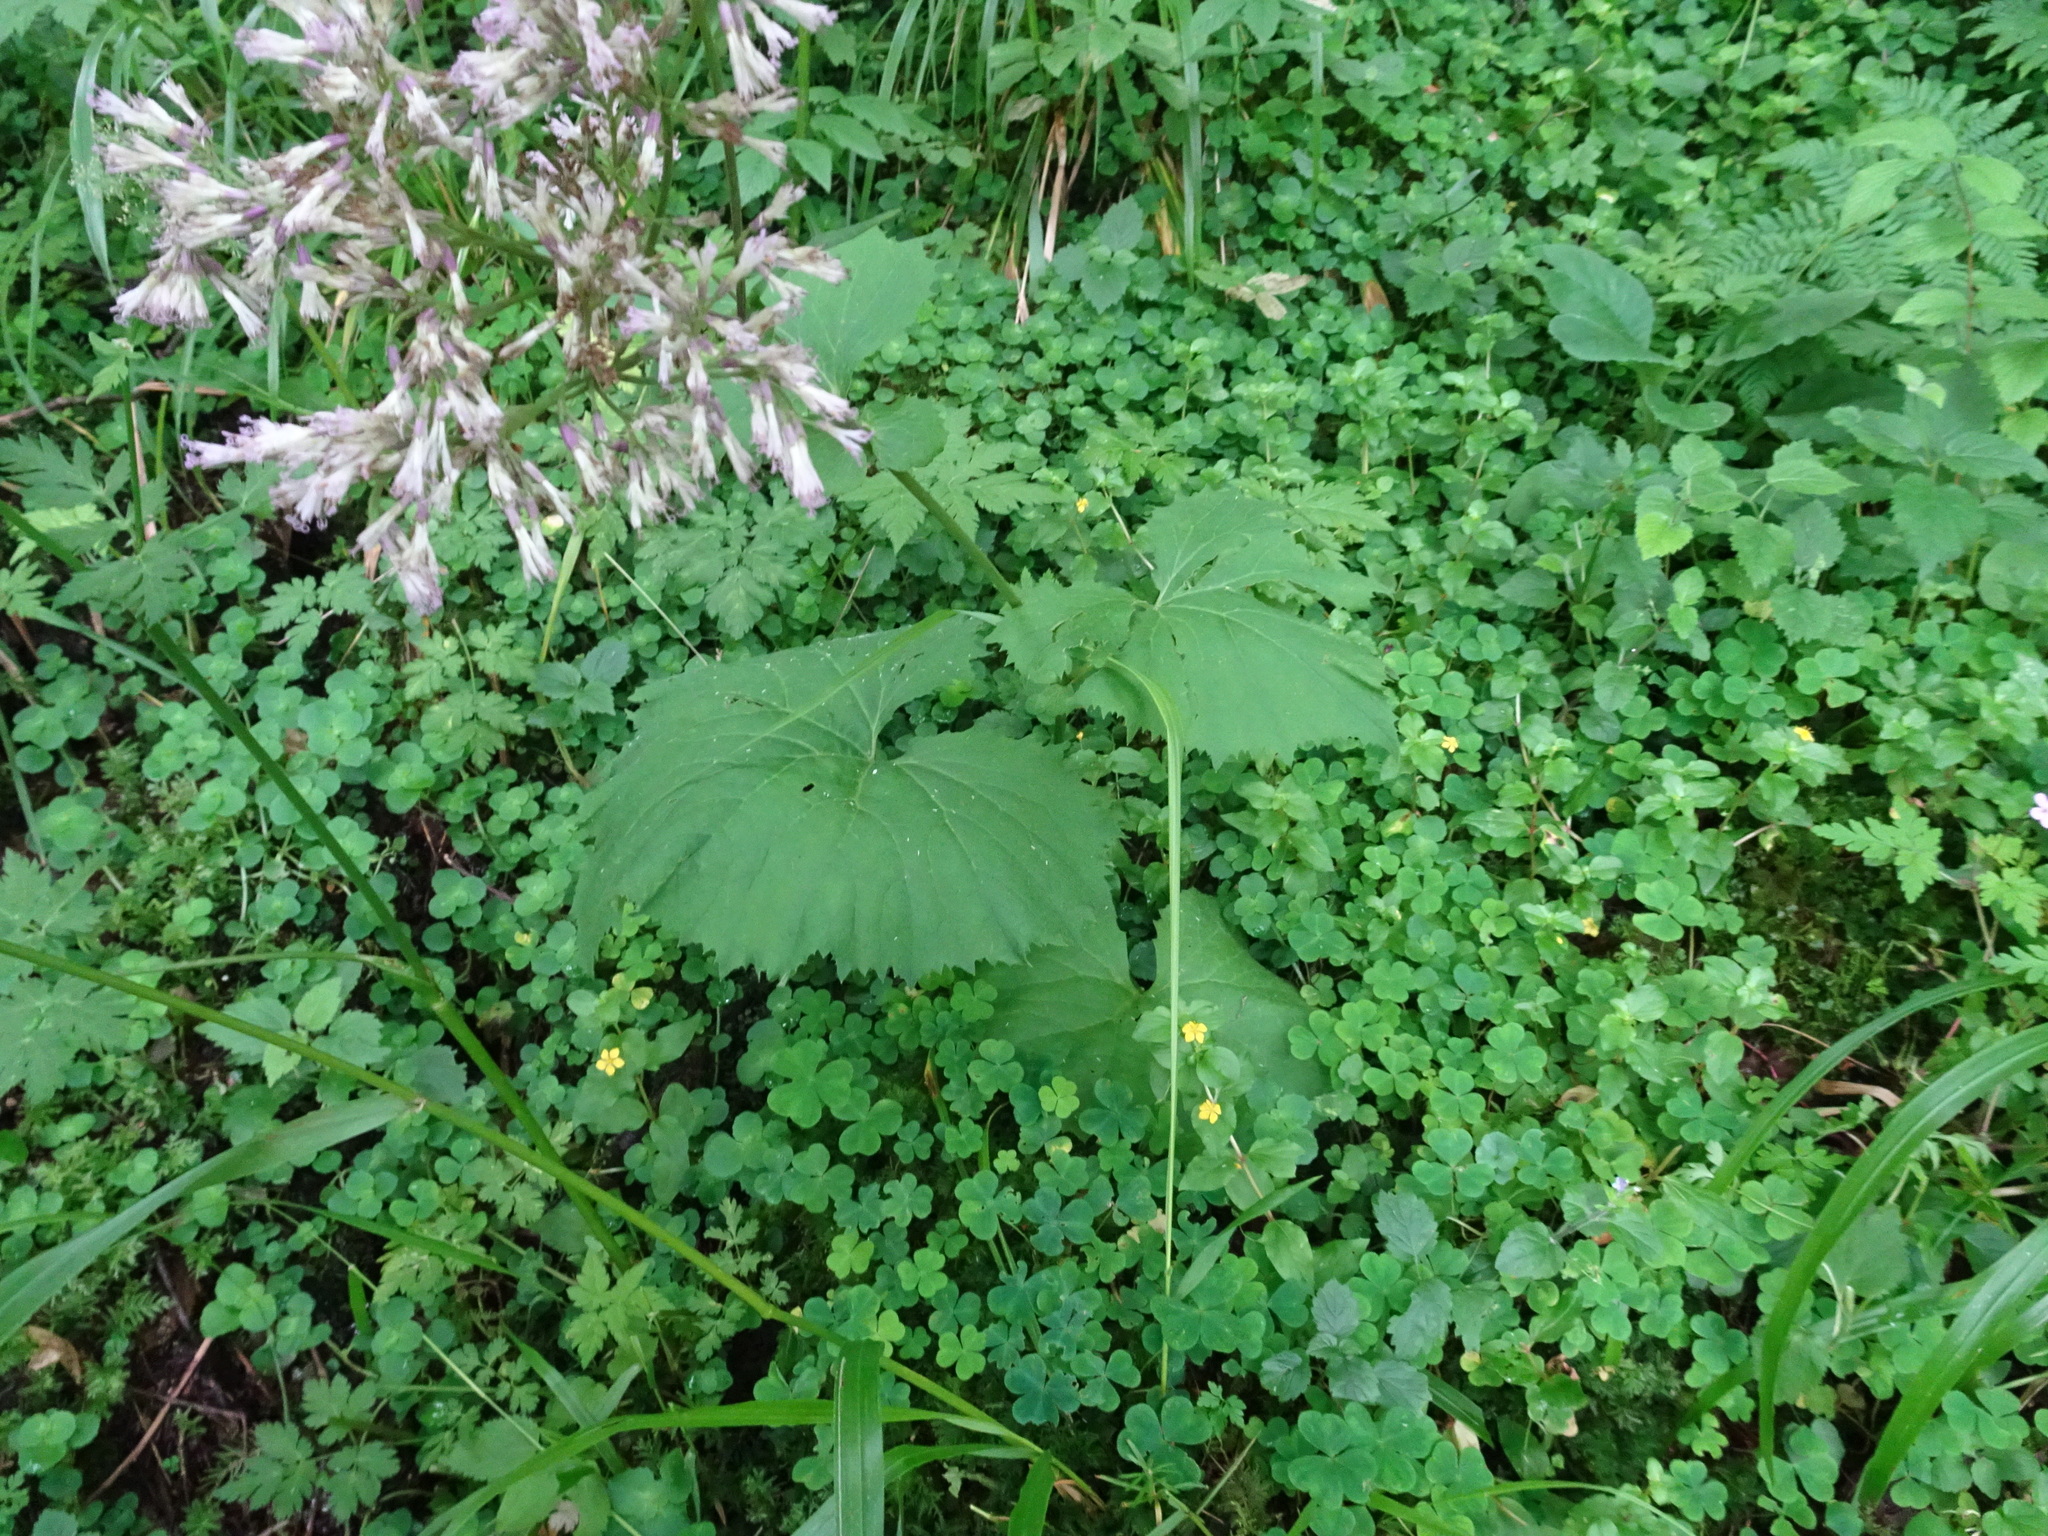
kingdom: Plantae
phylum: Tracheophyta
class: Magnoliopsida
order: Asterales
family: Asteraceae
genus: Adenostyles
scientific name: Adenostyles alliariae
